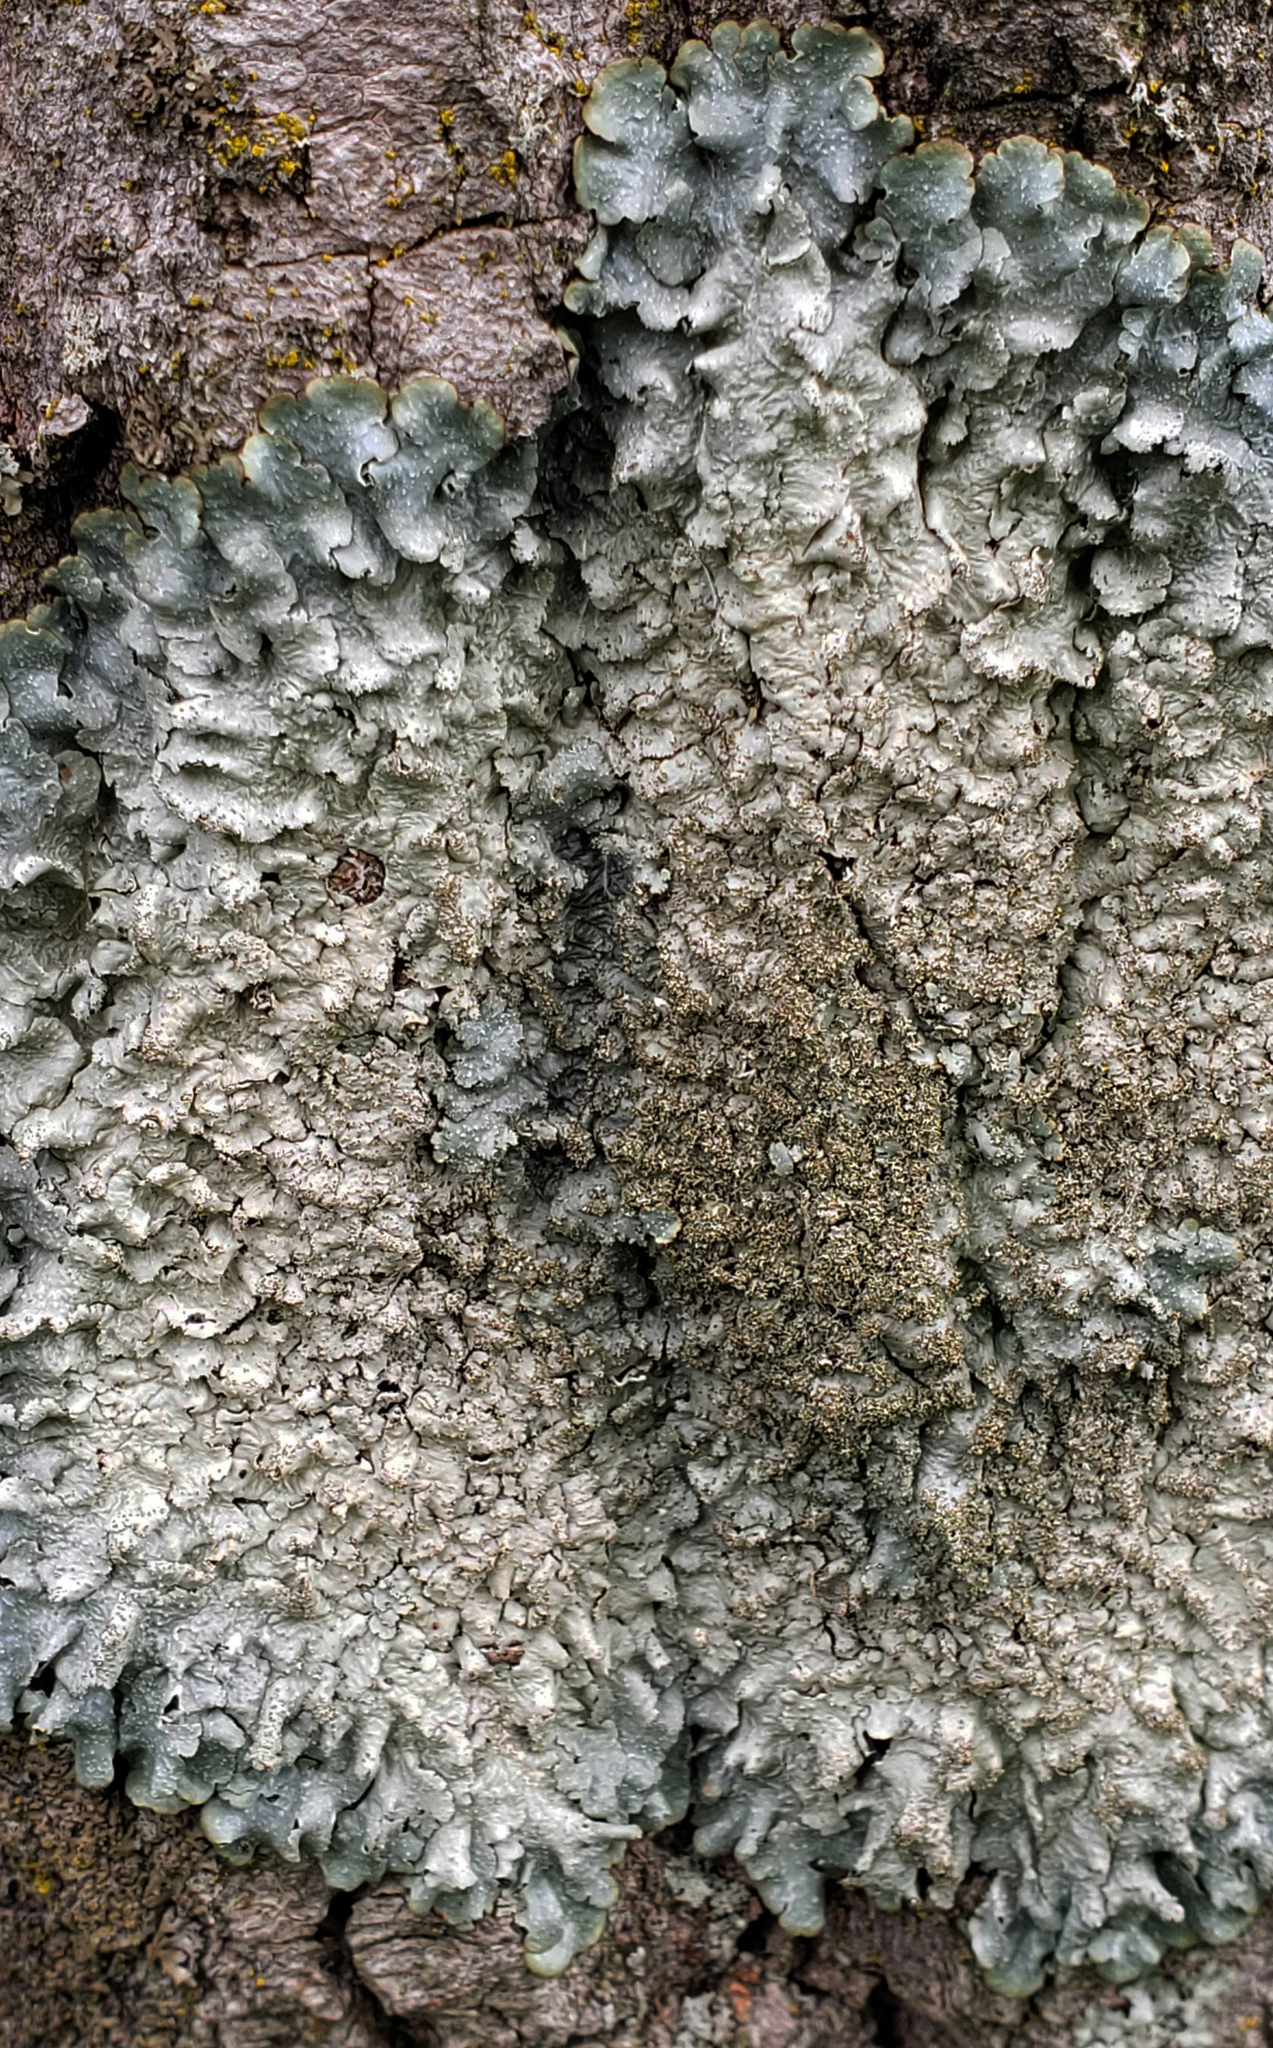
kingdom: Fungi
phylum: Ascomycota
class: Lecanoromycetes
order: Lecanorales
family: Parmeliaceae
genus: Punctelia
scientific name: Punctelia rudecta
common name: Rough speckled shield lichen
